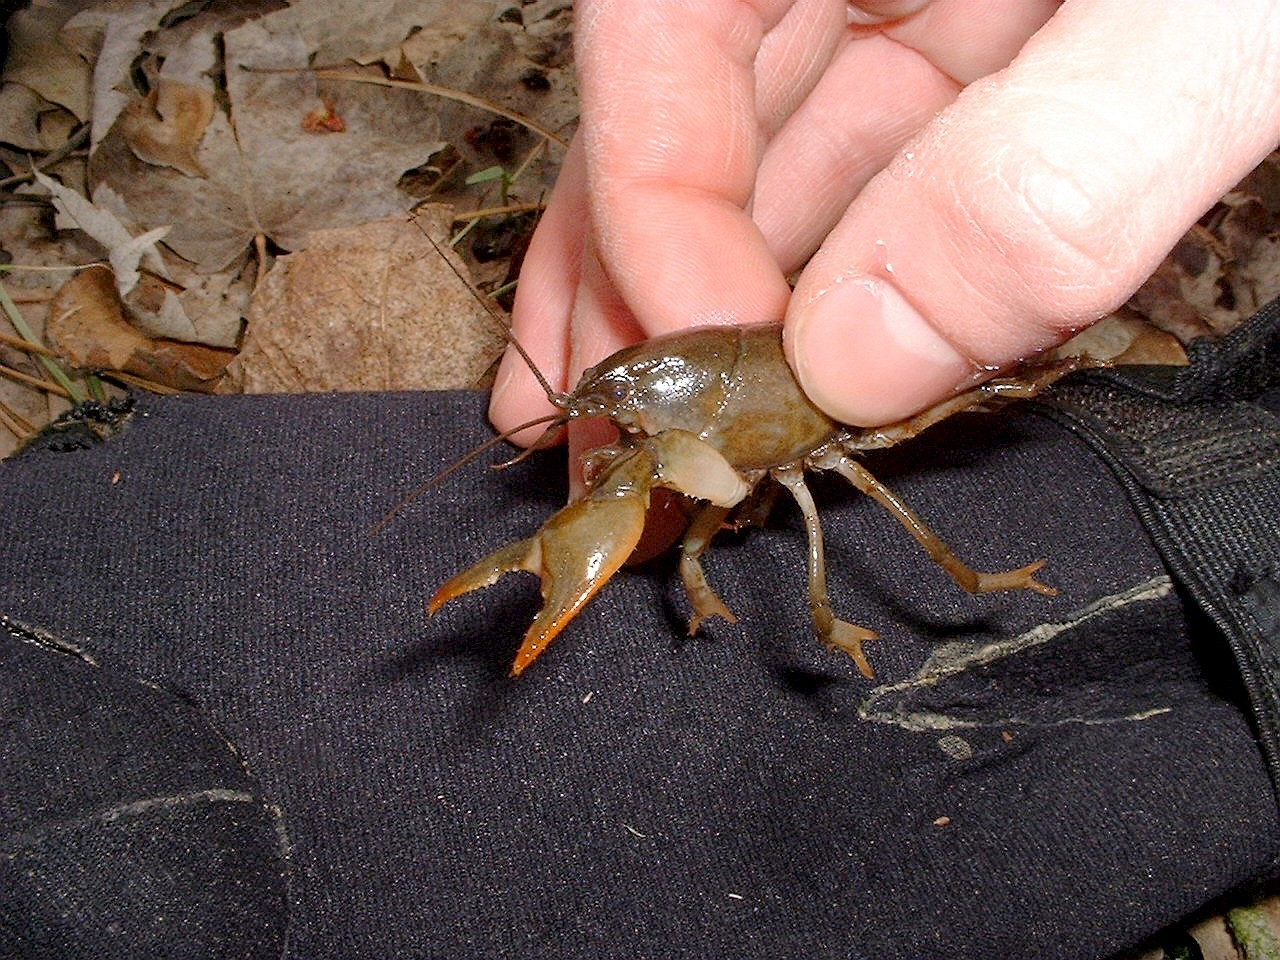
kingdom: Animalia
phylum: Arthropoda
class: Malacostraca
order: Decapoda
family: Cambaridae
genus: Creaserinus
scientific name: Creaserinus fodiens
